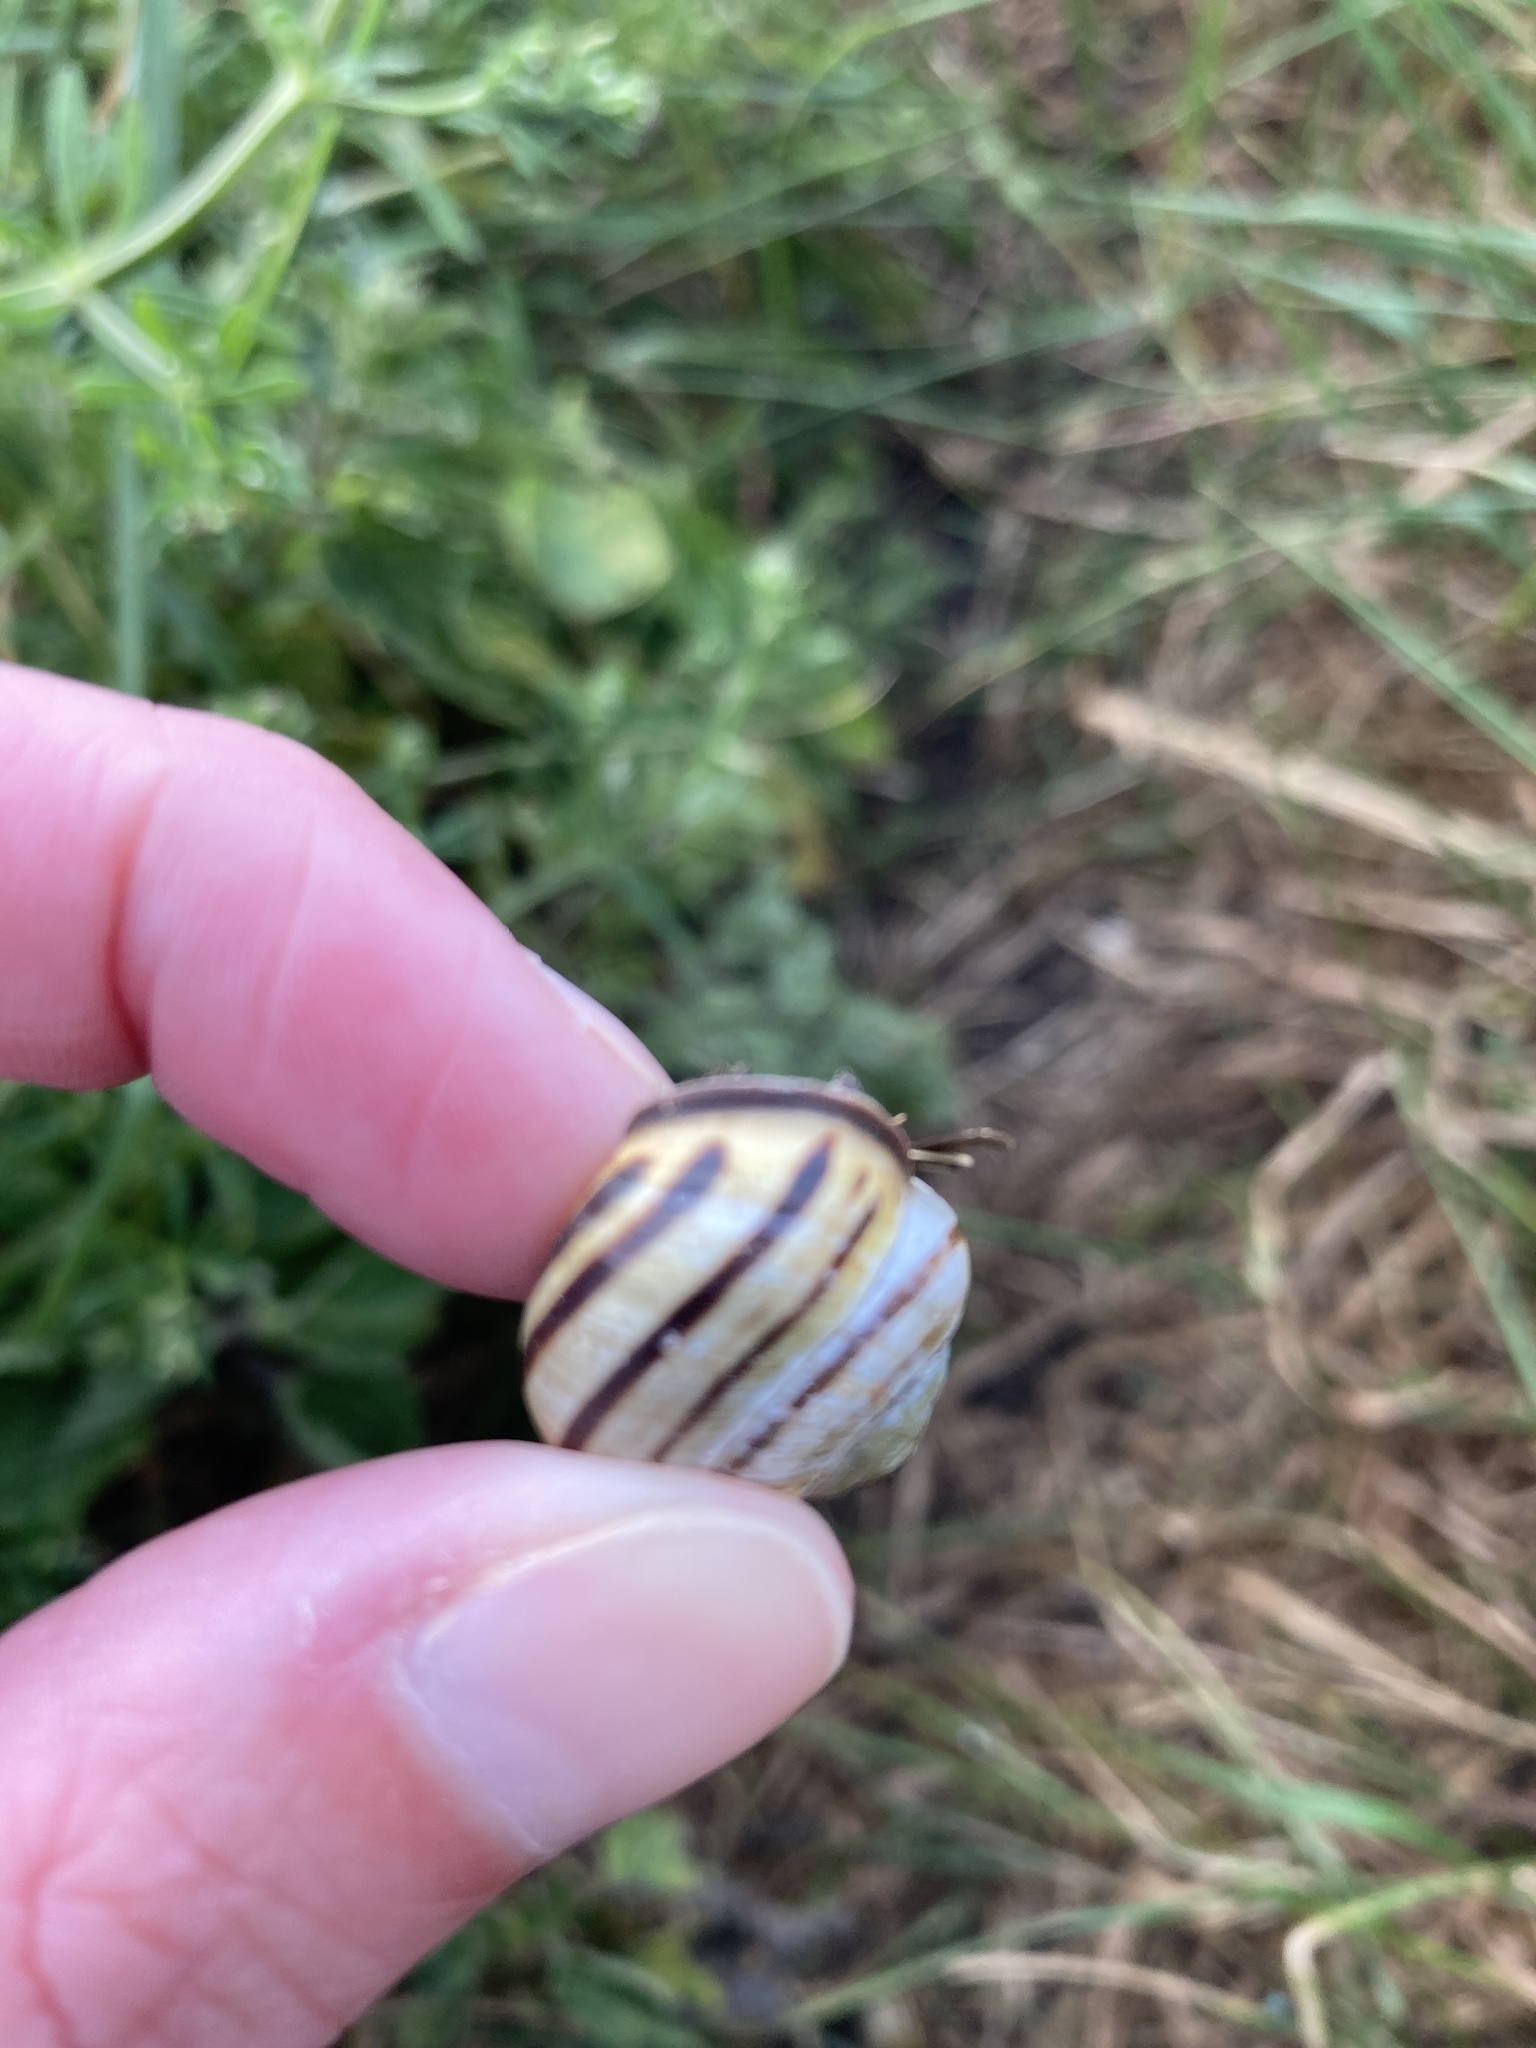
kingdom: Animalia
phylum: Mollusca
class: Gastropoda
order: Stylommatophora
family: Helicidae
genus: Cepaea
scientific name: Cepaea nemoralis
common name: Grovesnail
